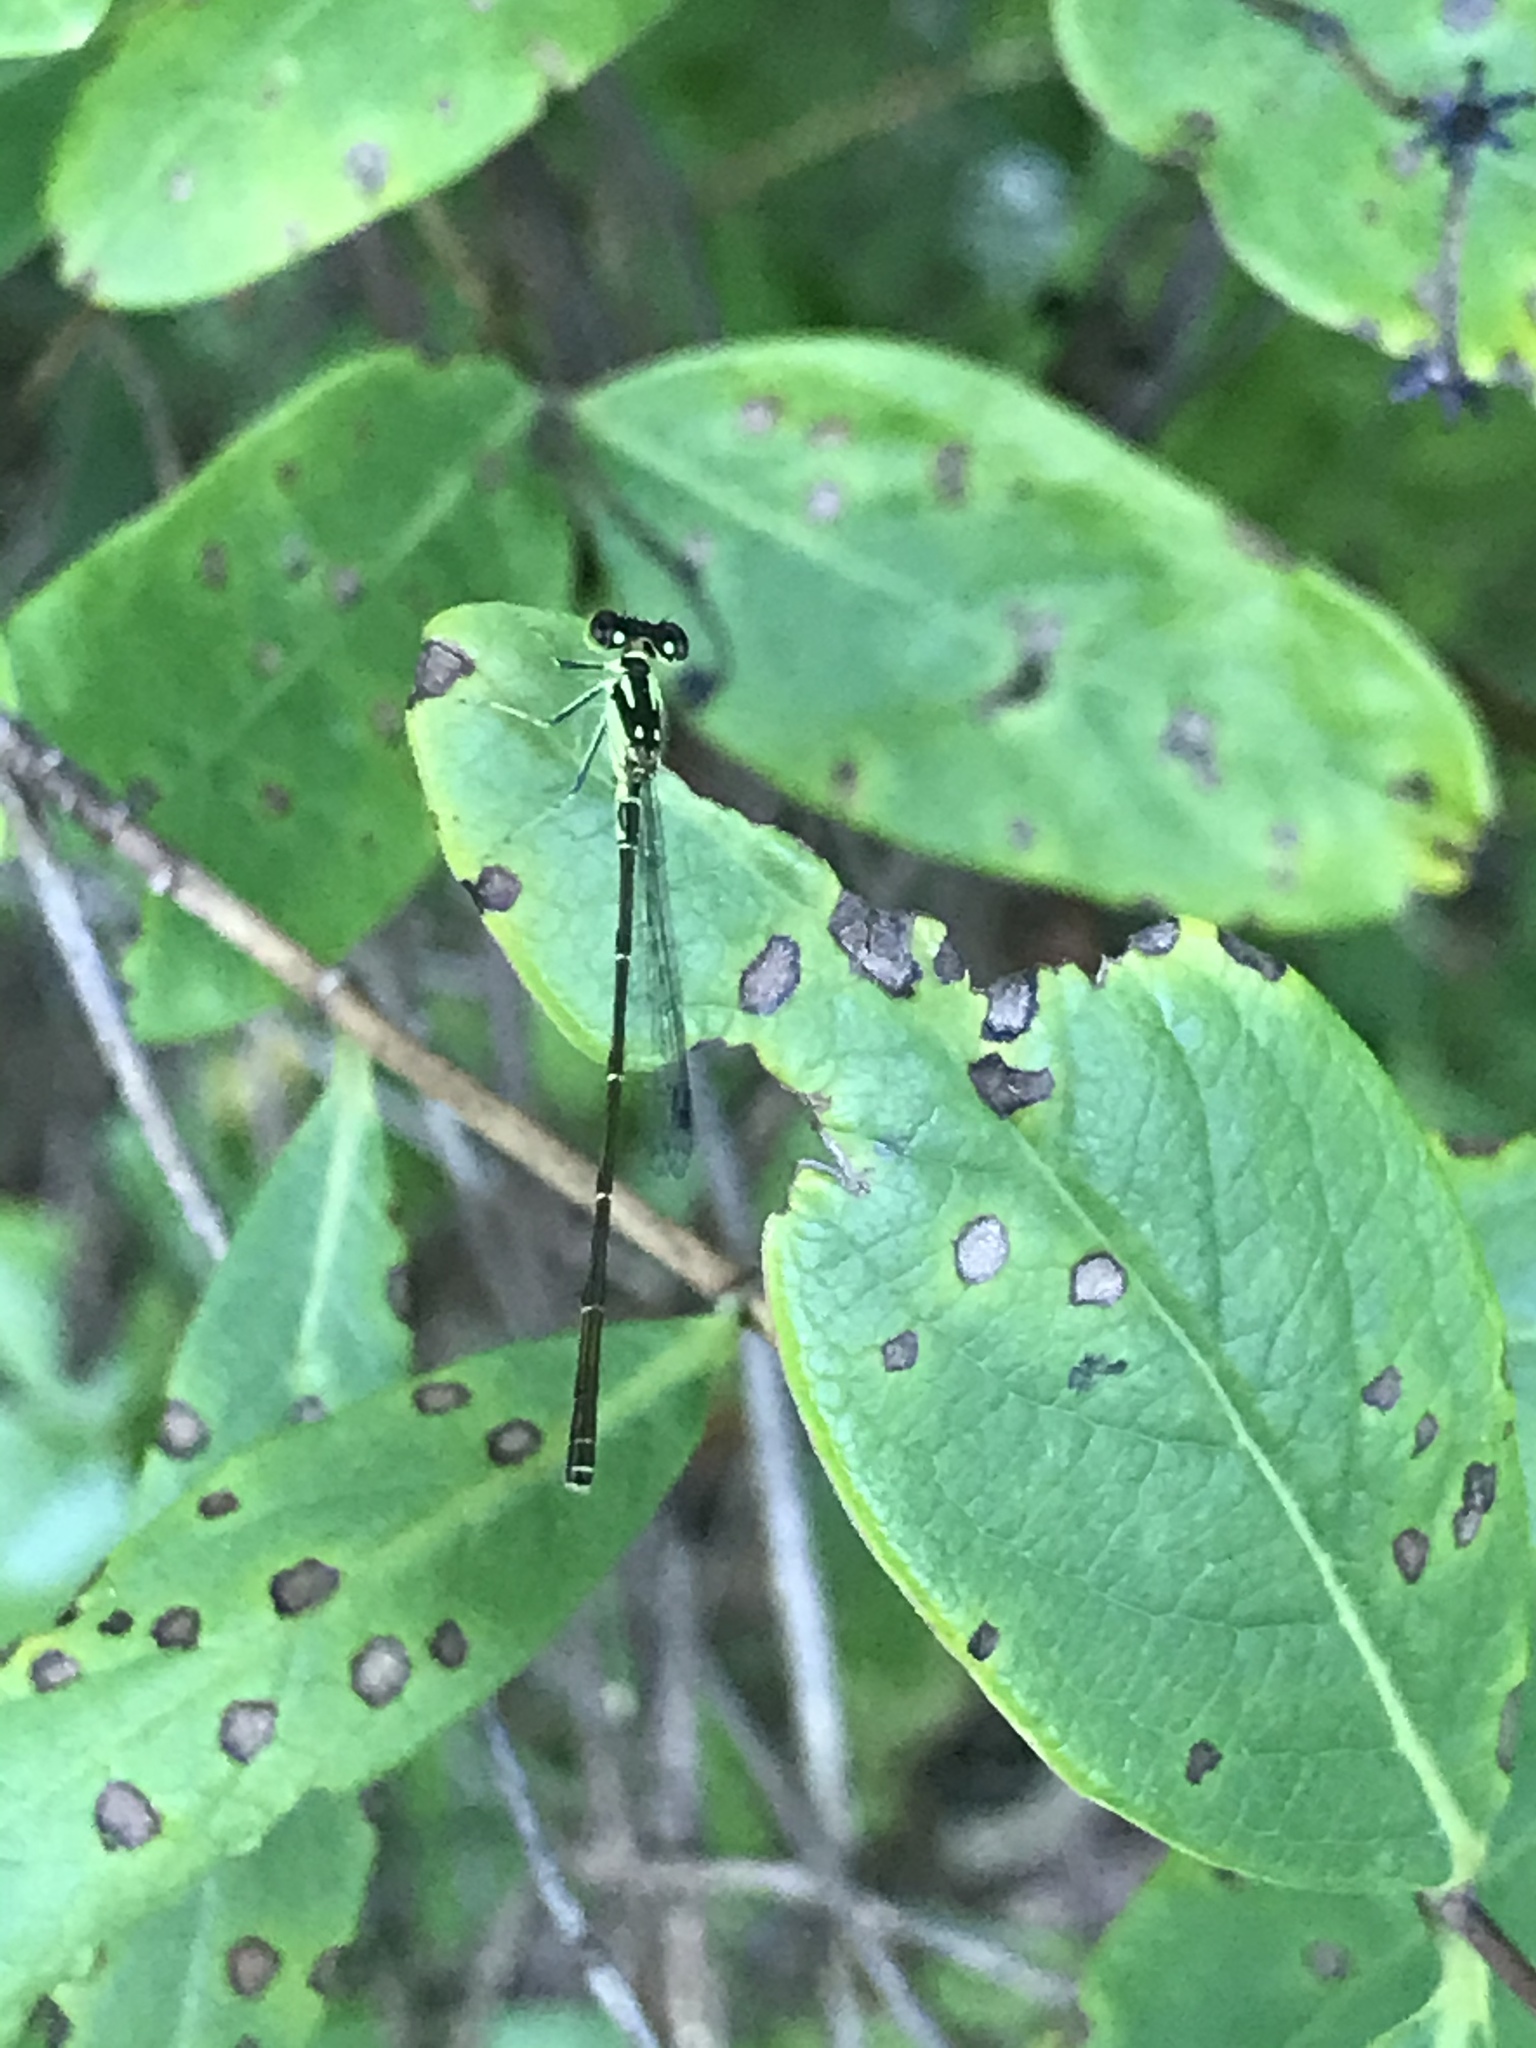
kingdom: Animalia
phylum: Arthropoda
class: Insecta
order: Odonata
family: Coenagrionidae
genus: Ischnura
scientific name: Ischnura posita
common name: Fragile forktail
